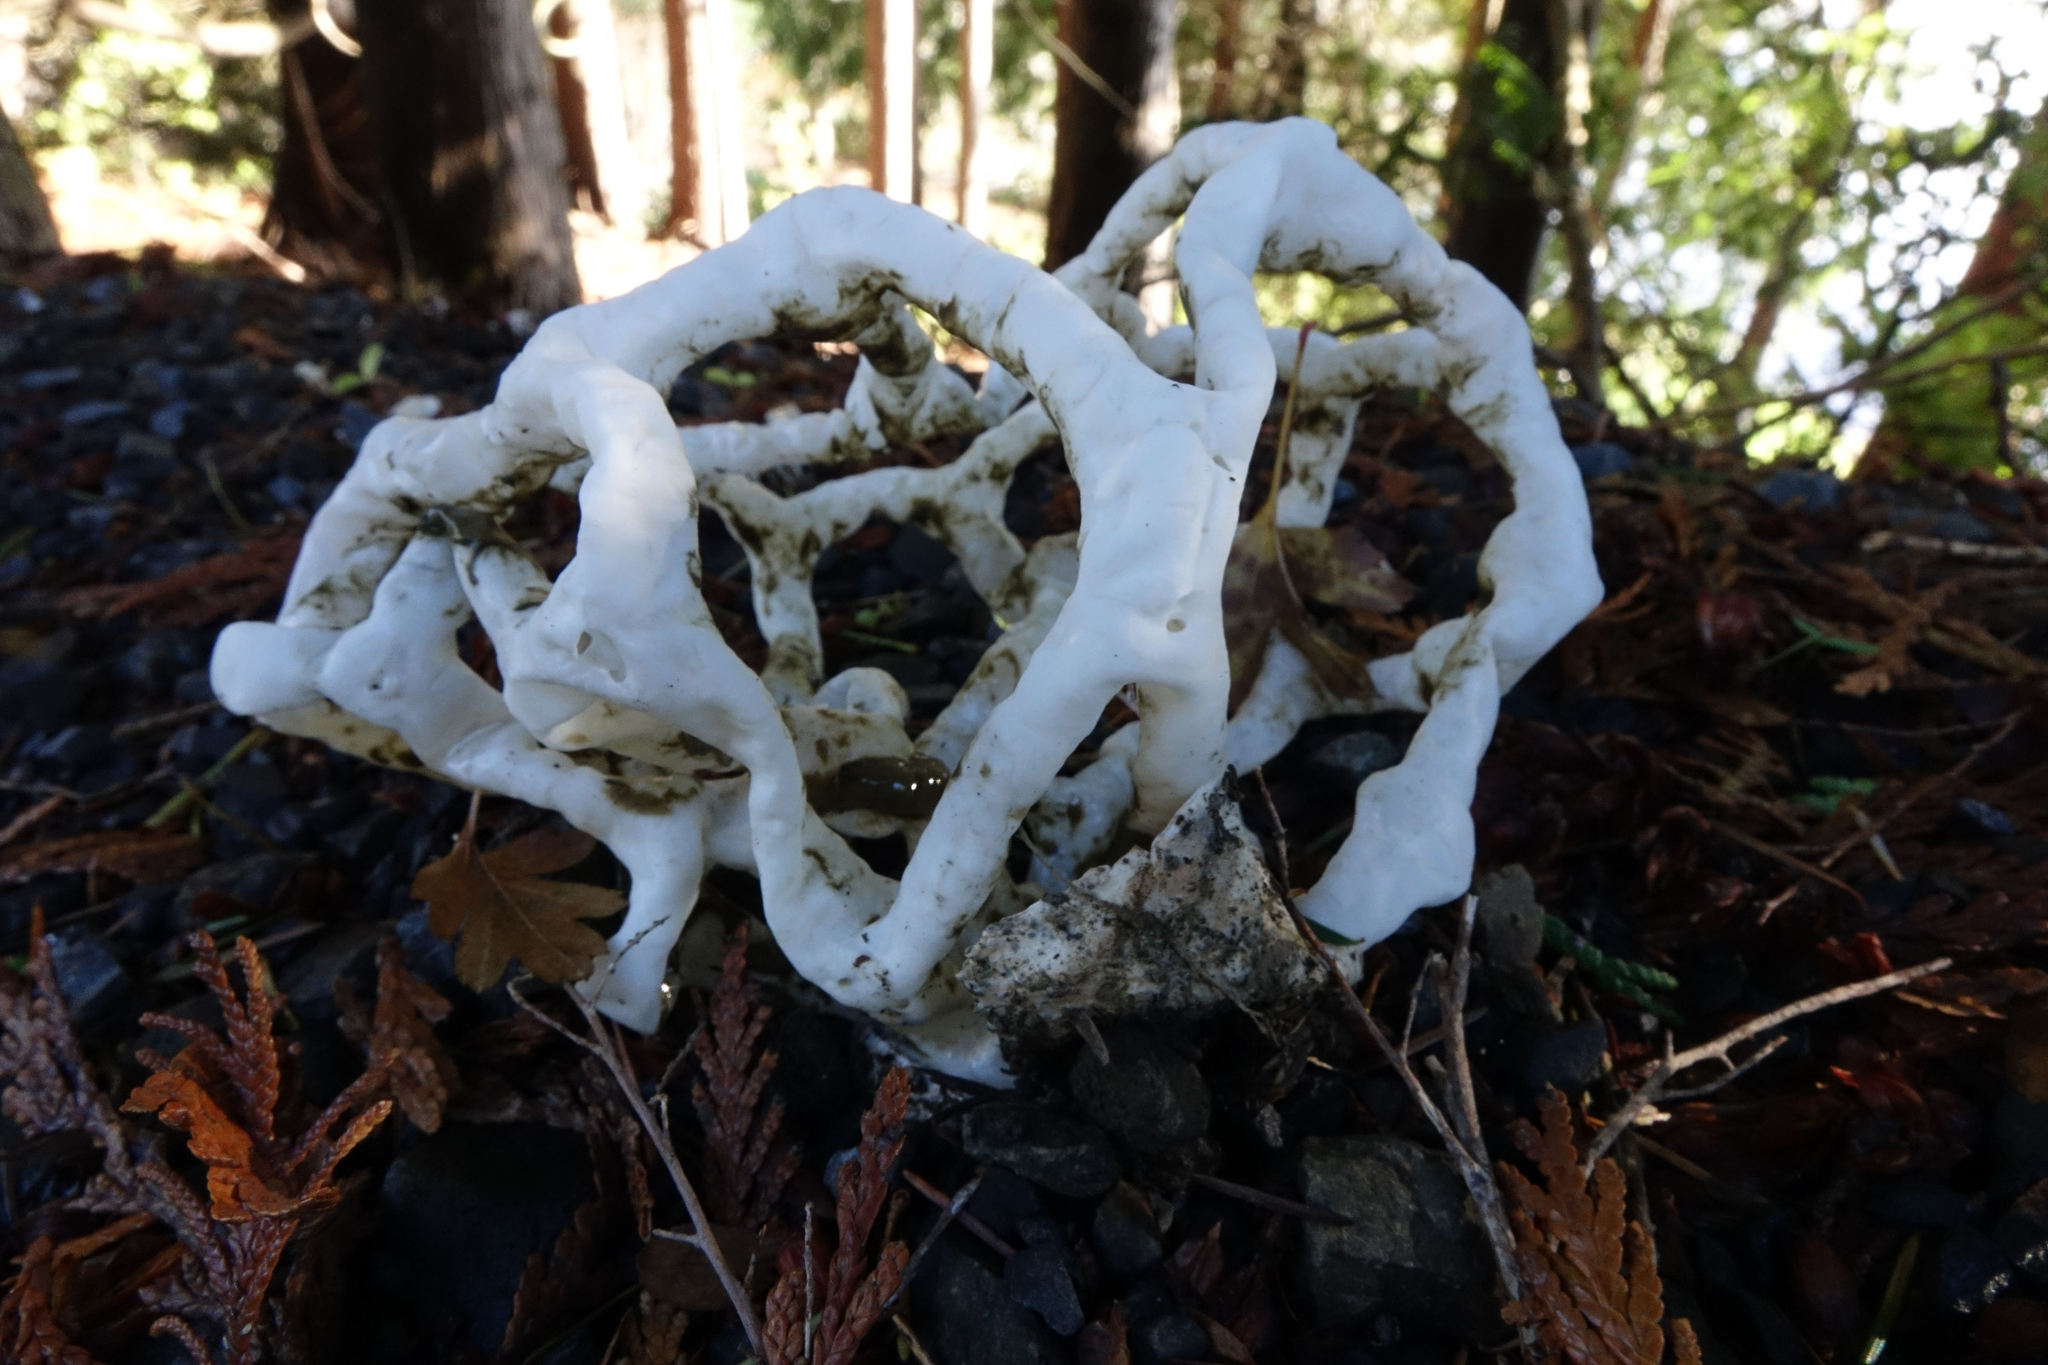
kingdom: Fungi
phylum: Basidiomycota
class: Agaricomycetes
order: Phallales
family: Phallaceae
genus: Ileodictyon
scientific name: Ileodictyon cibarium
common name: Basket fungus
